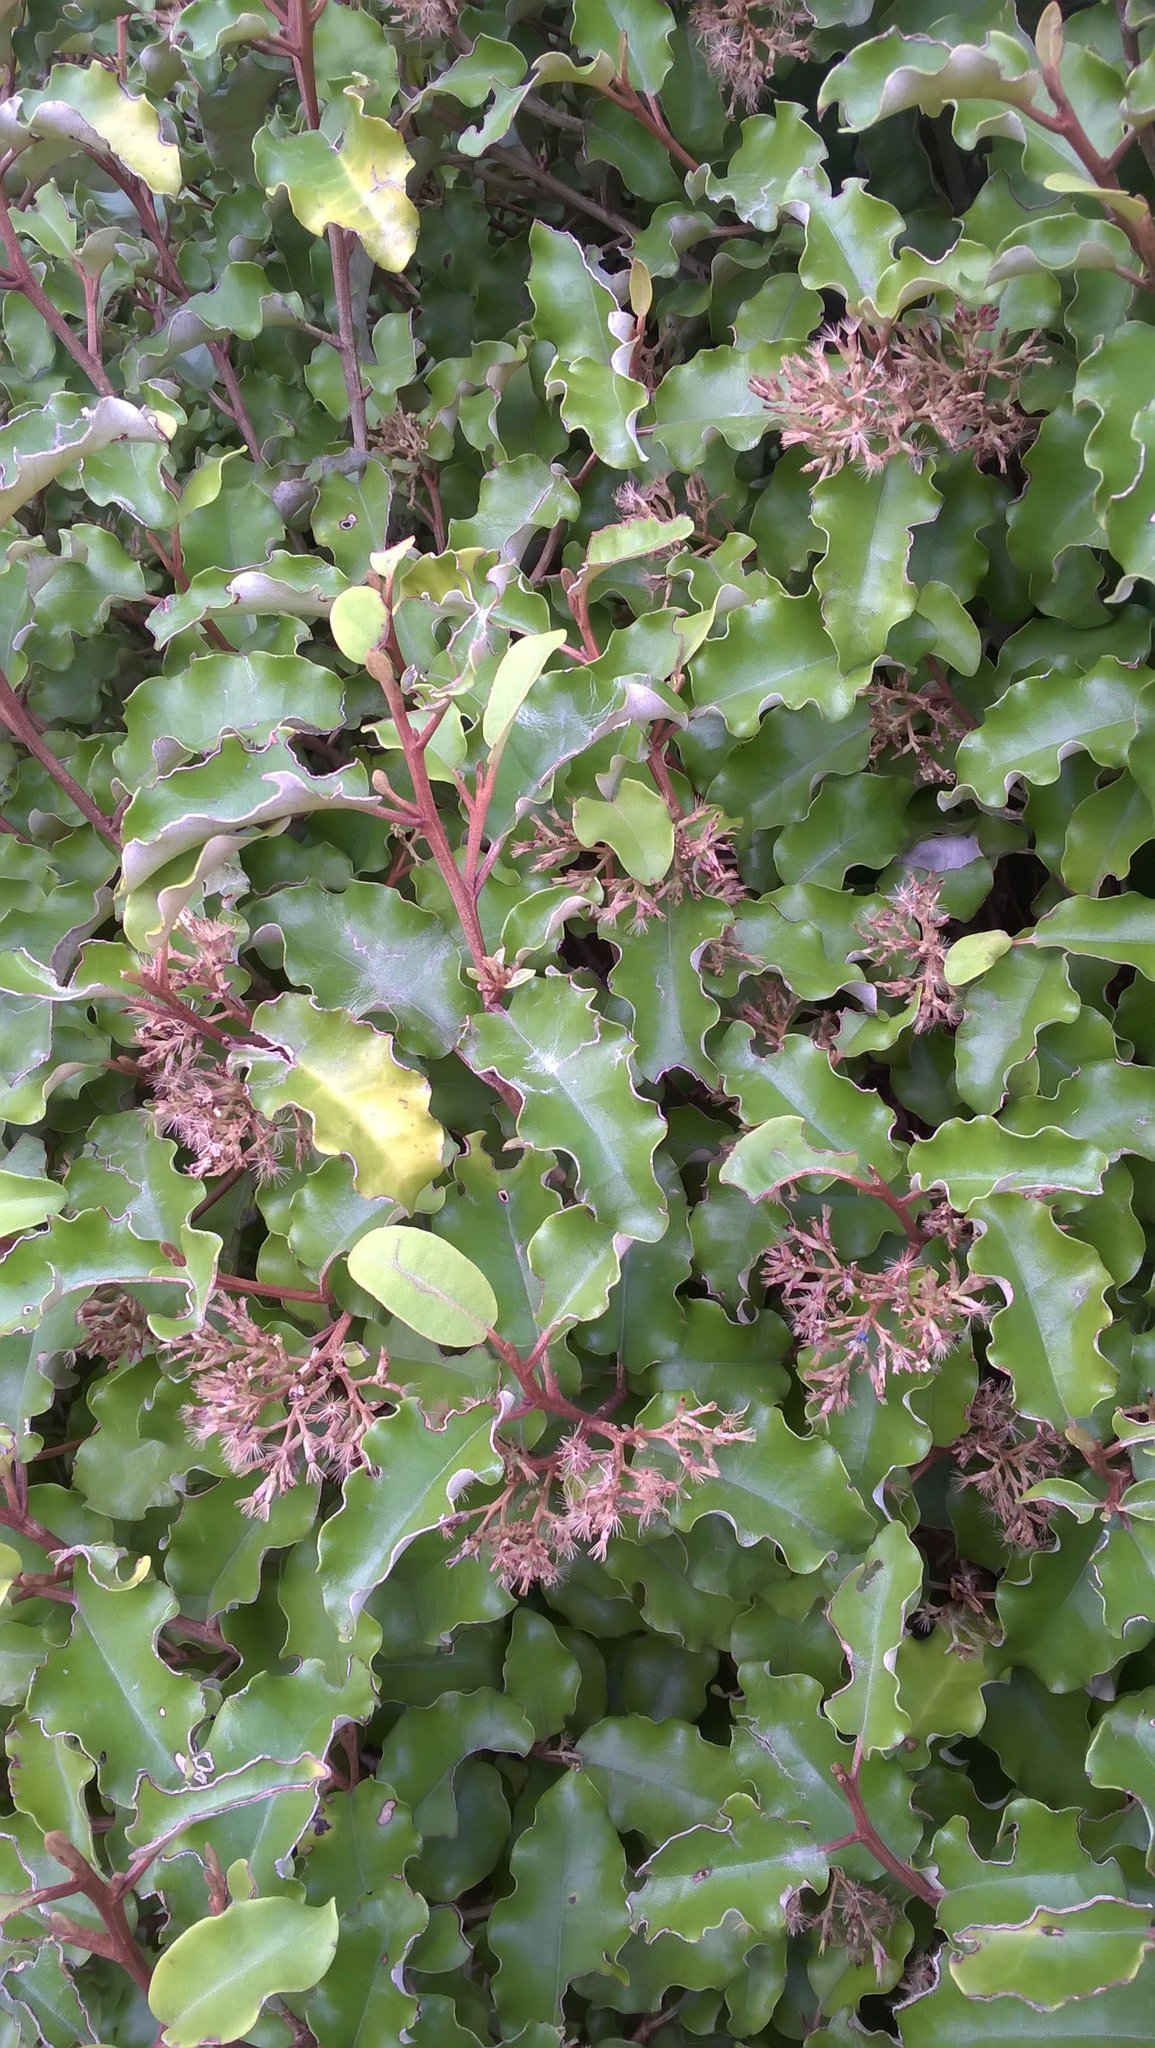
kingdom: Plantae
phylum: Tracheophyta
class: Magnoliopsida
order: Asterales
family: Asteraceae
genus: Olearia
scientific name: Olearia paniculata
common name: Akiraho
